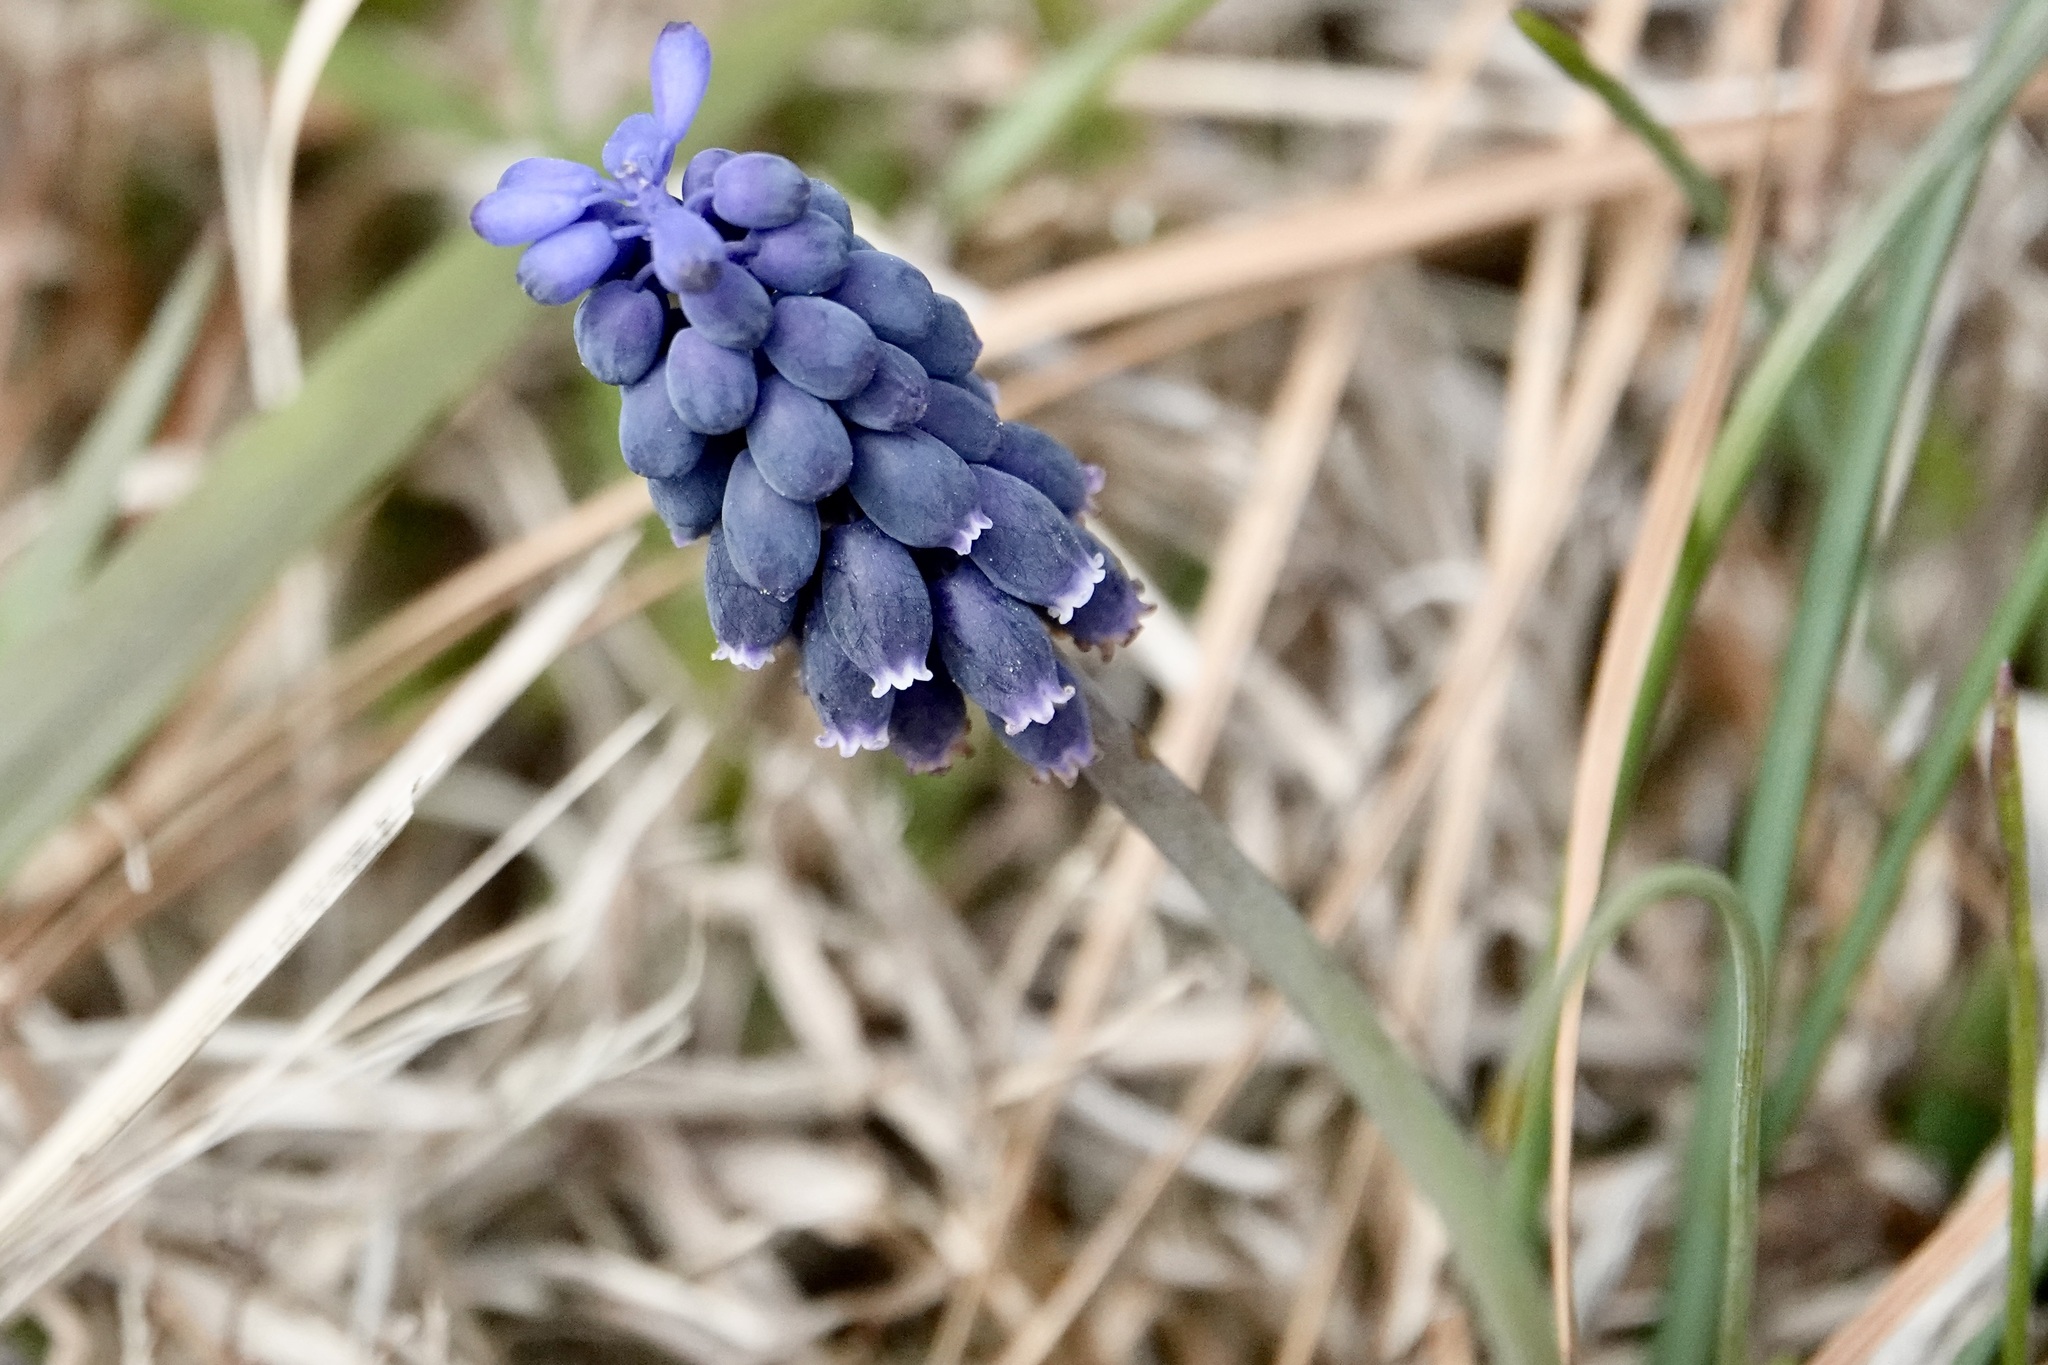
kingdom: Plantae
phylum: Tracheophyta
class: Liliopsida
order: Asparagales
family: Asparagaceae
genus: Muscari
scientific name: Muscari neglectum
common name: Grape-hyacinth
